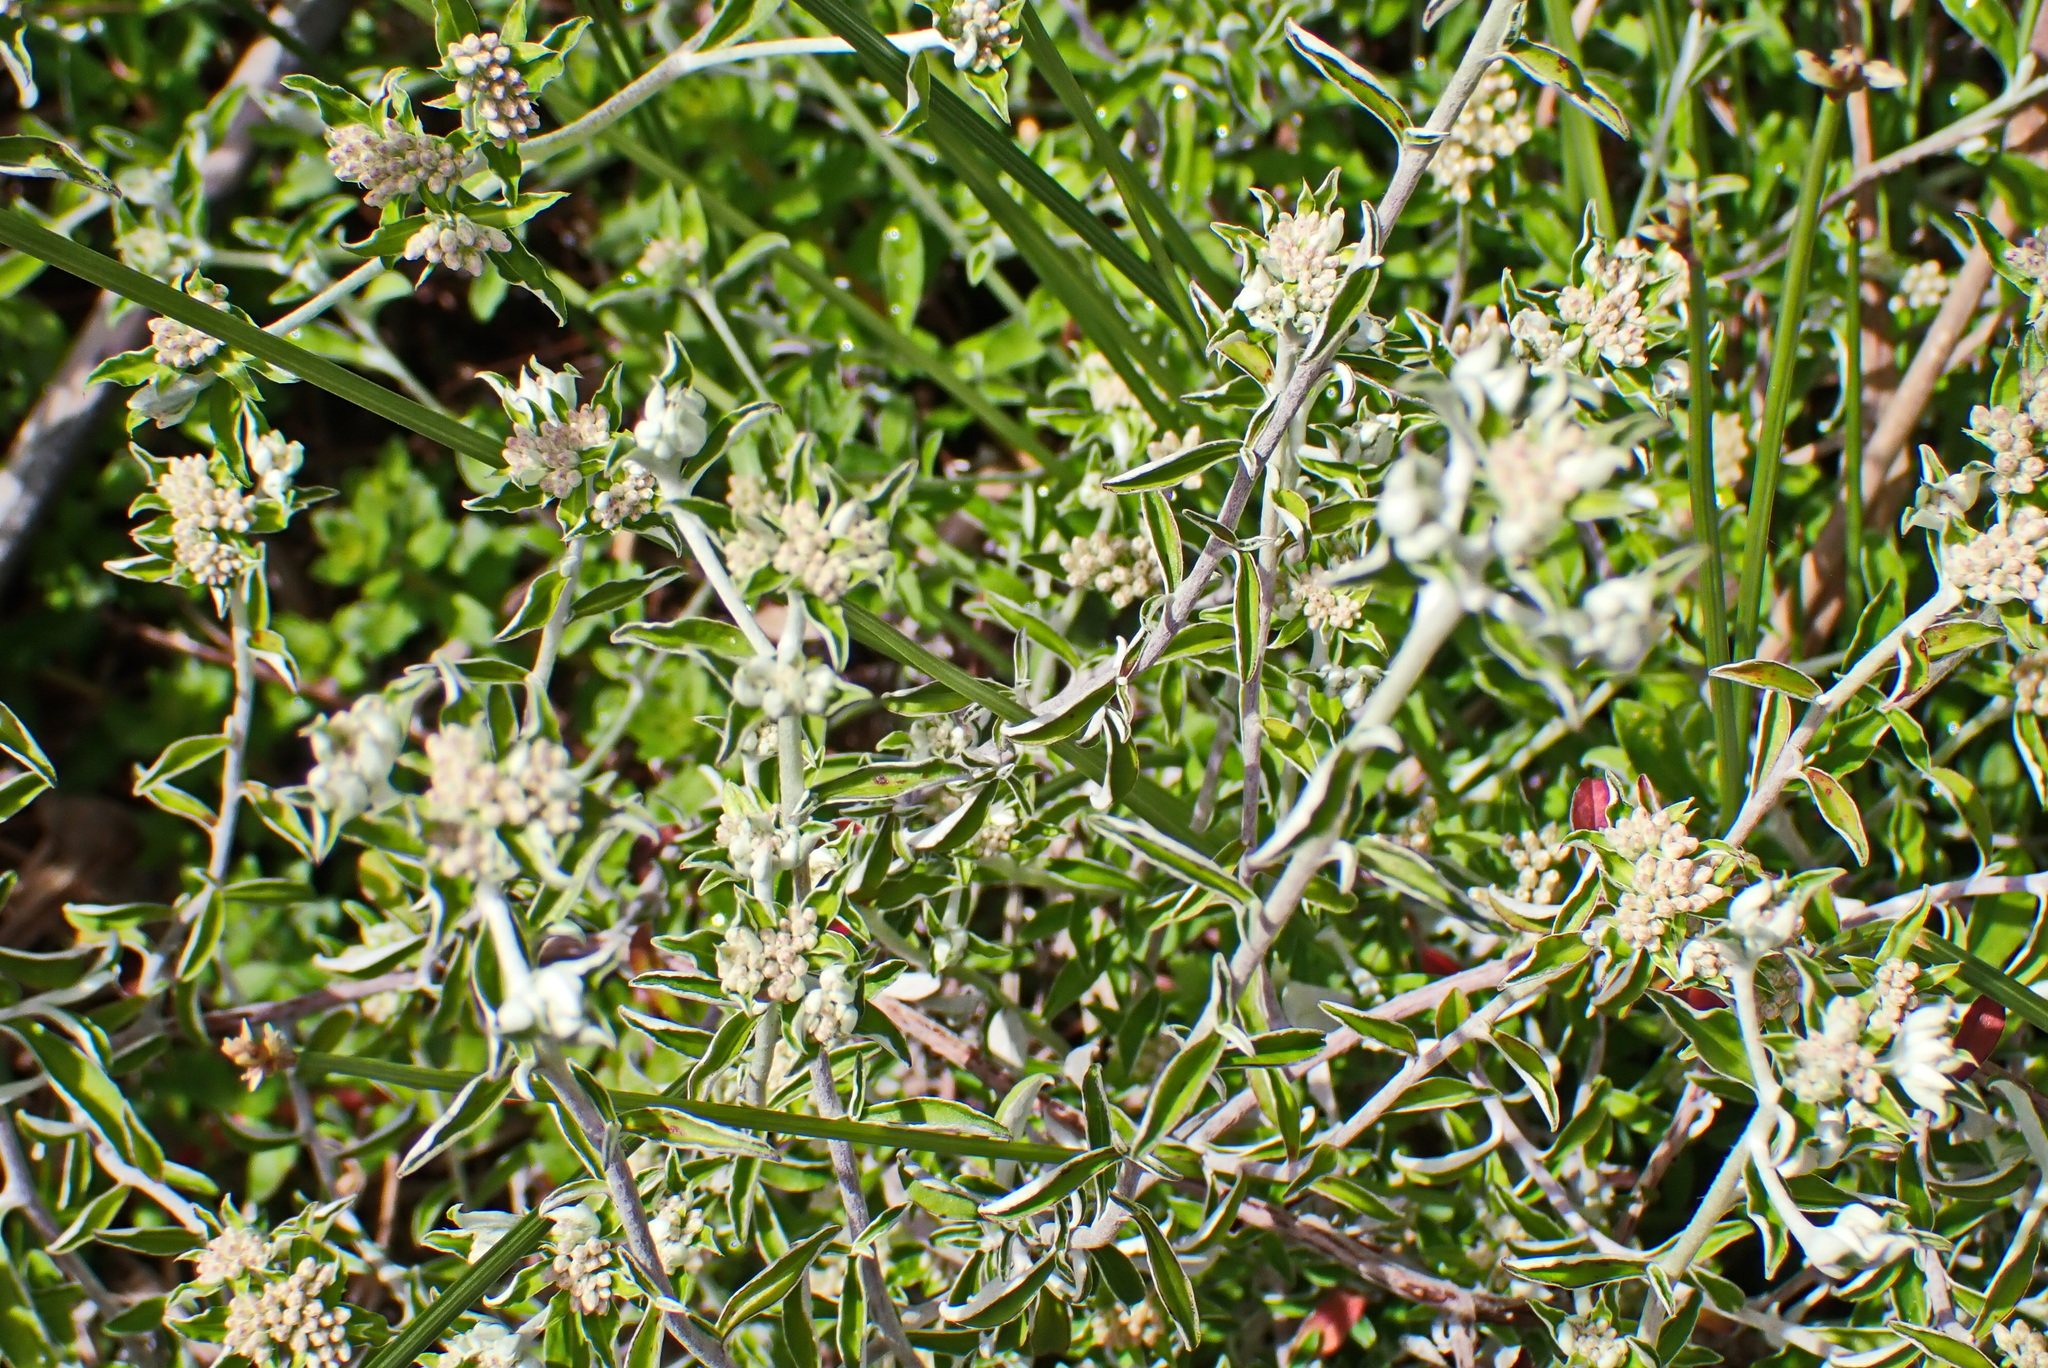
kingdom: Plantae
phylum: Tracheophyta
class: Magnoliopsida
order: Asterales
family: Asteraceae
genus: Plecostachys
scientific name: Plecostachys polifolia
